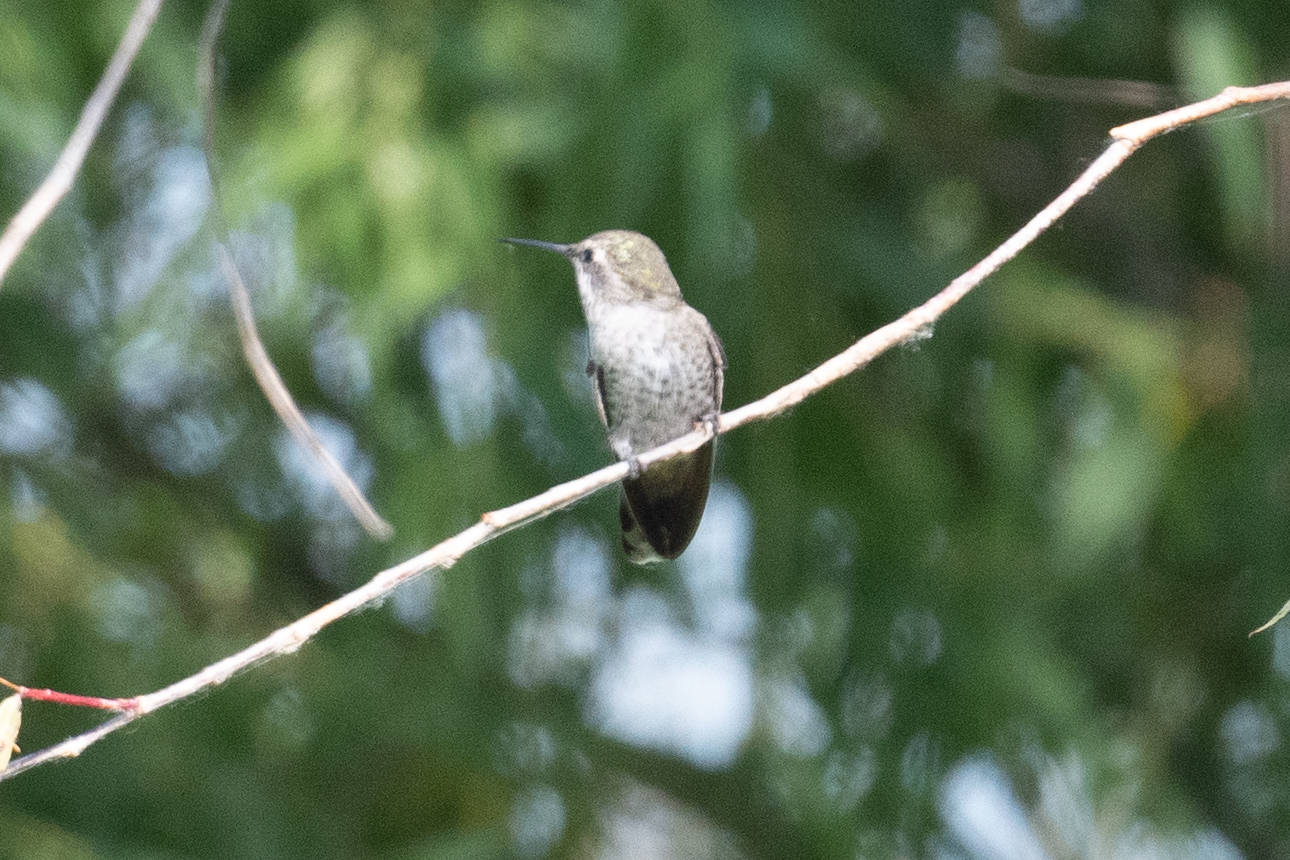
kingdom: Animalia
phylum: Chordata
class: Aves
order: Apodiformes
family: Trochilidae
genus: Calypte
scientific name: Calypte anna
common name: Anna's hummingbird
